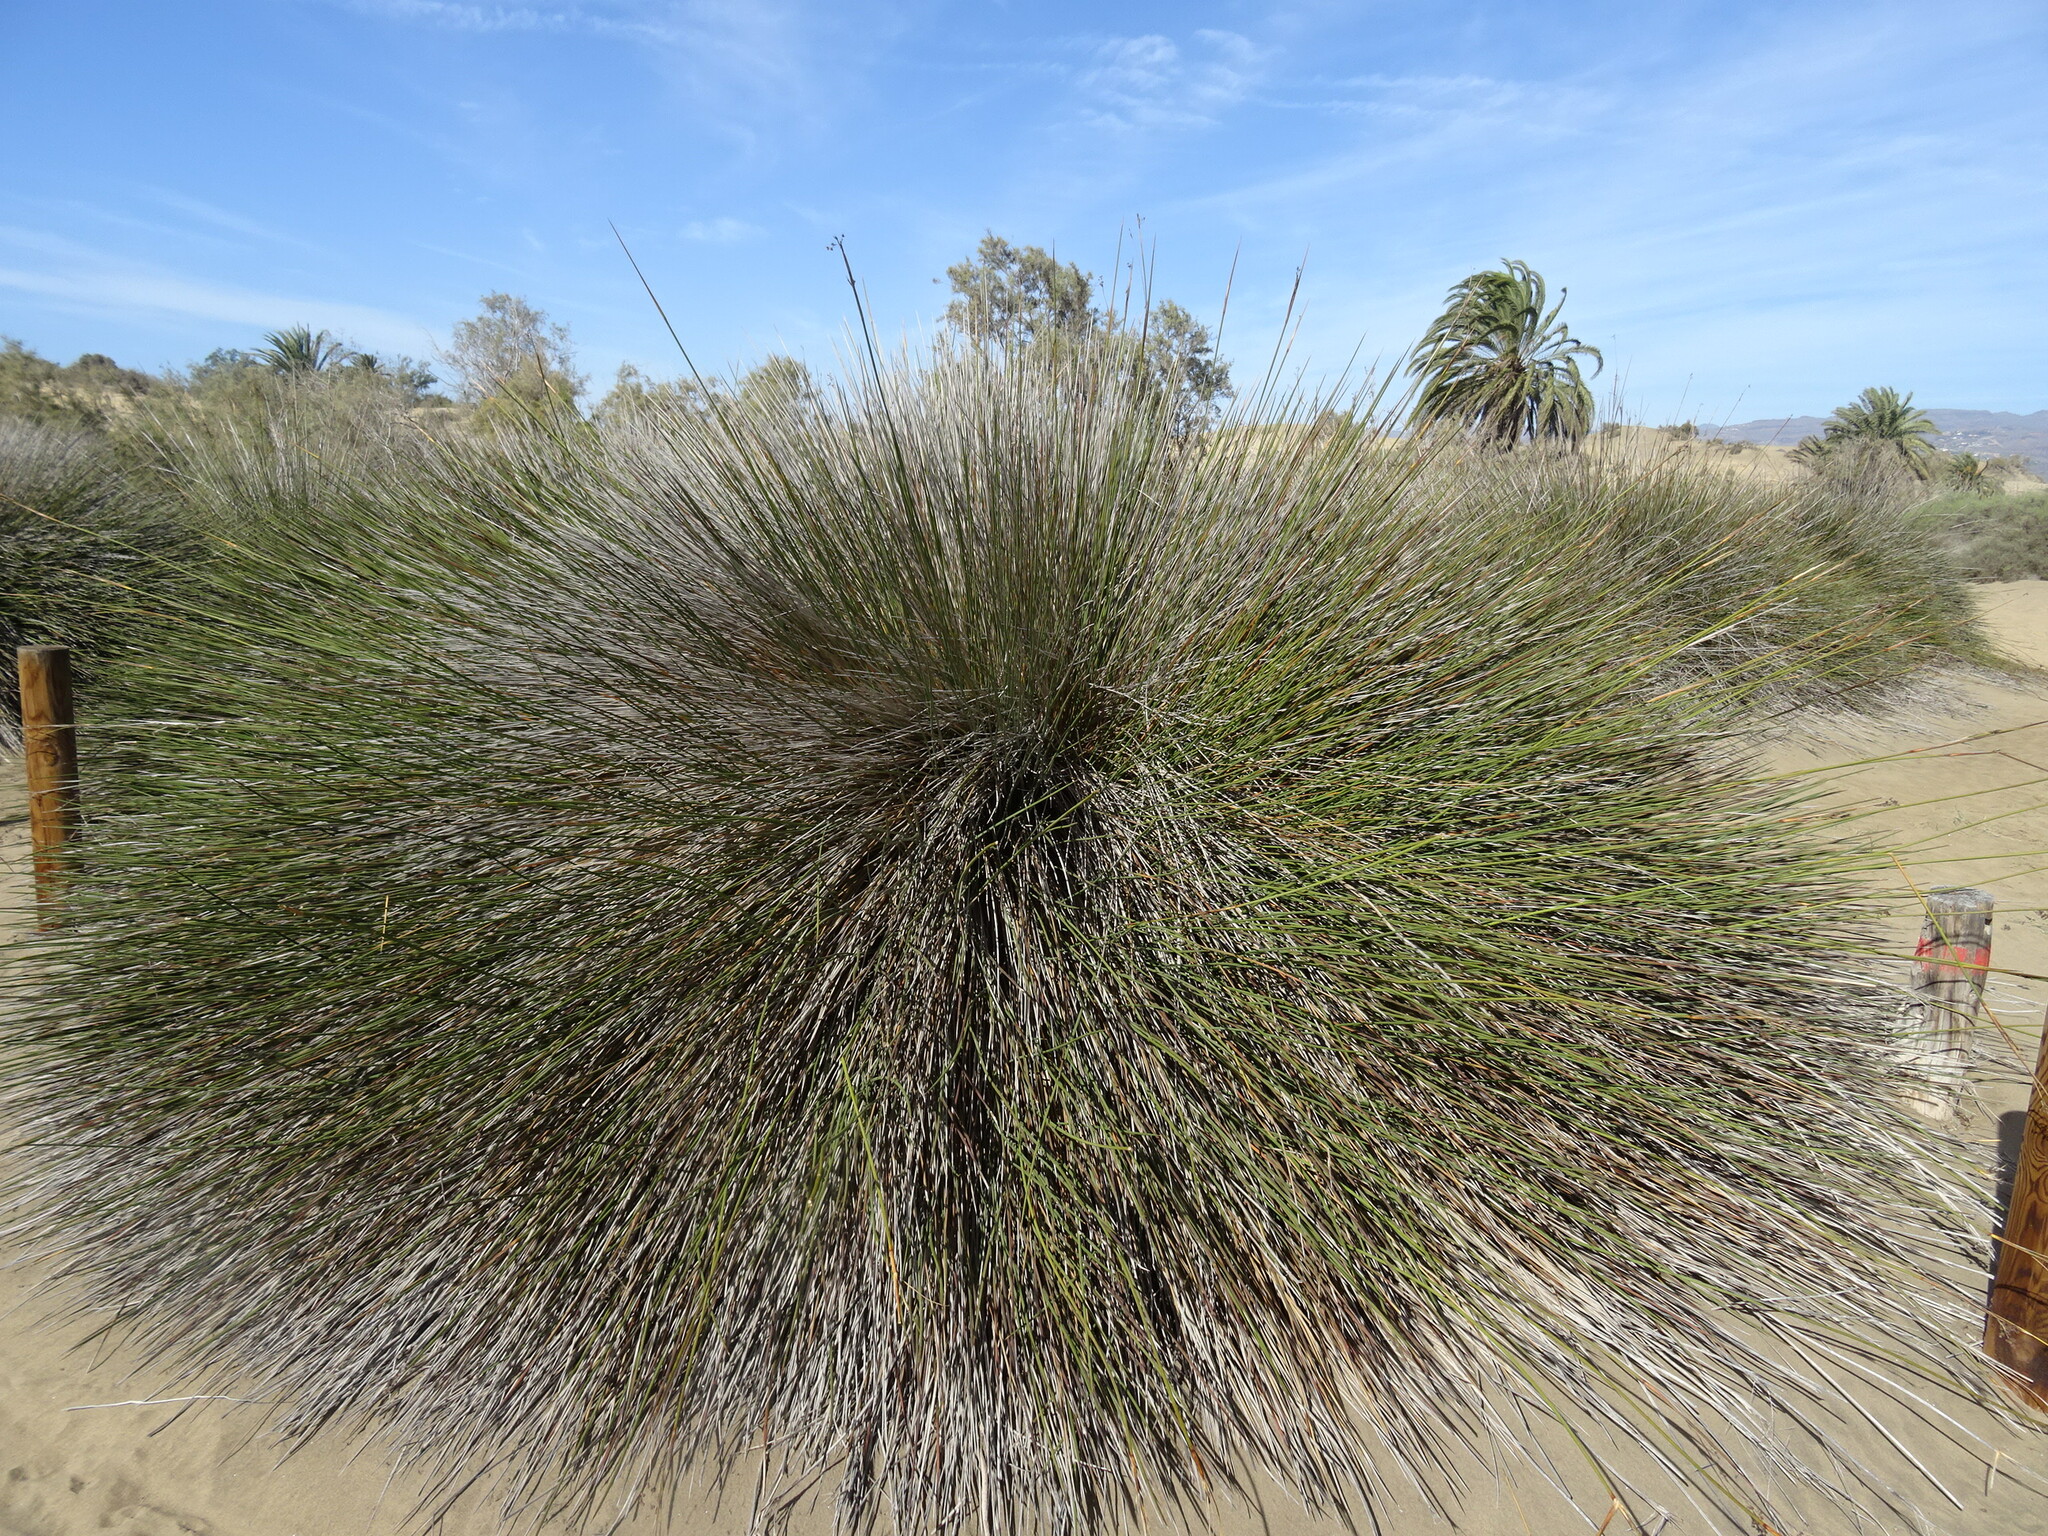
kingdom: Plantae
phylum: Tracheophyta
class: Liliopsida
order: Poales
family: Juncaceae
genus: Juncus
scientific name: Juncus acutus
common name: Sharp rush
